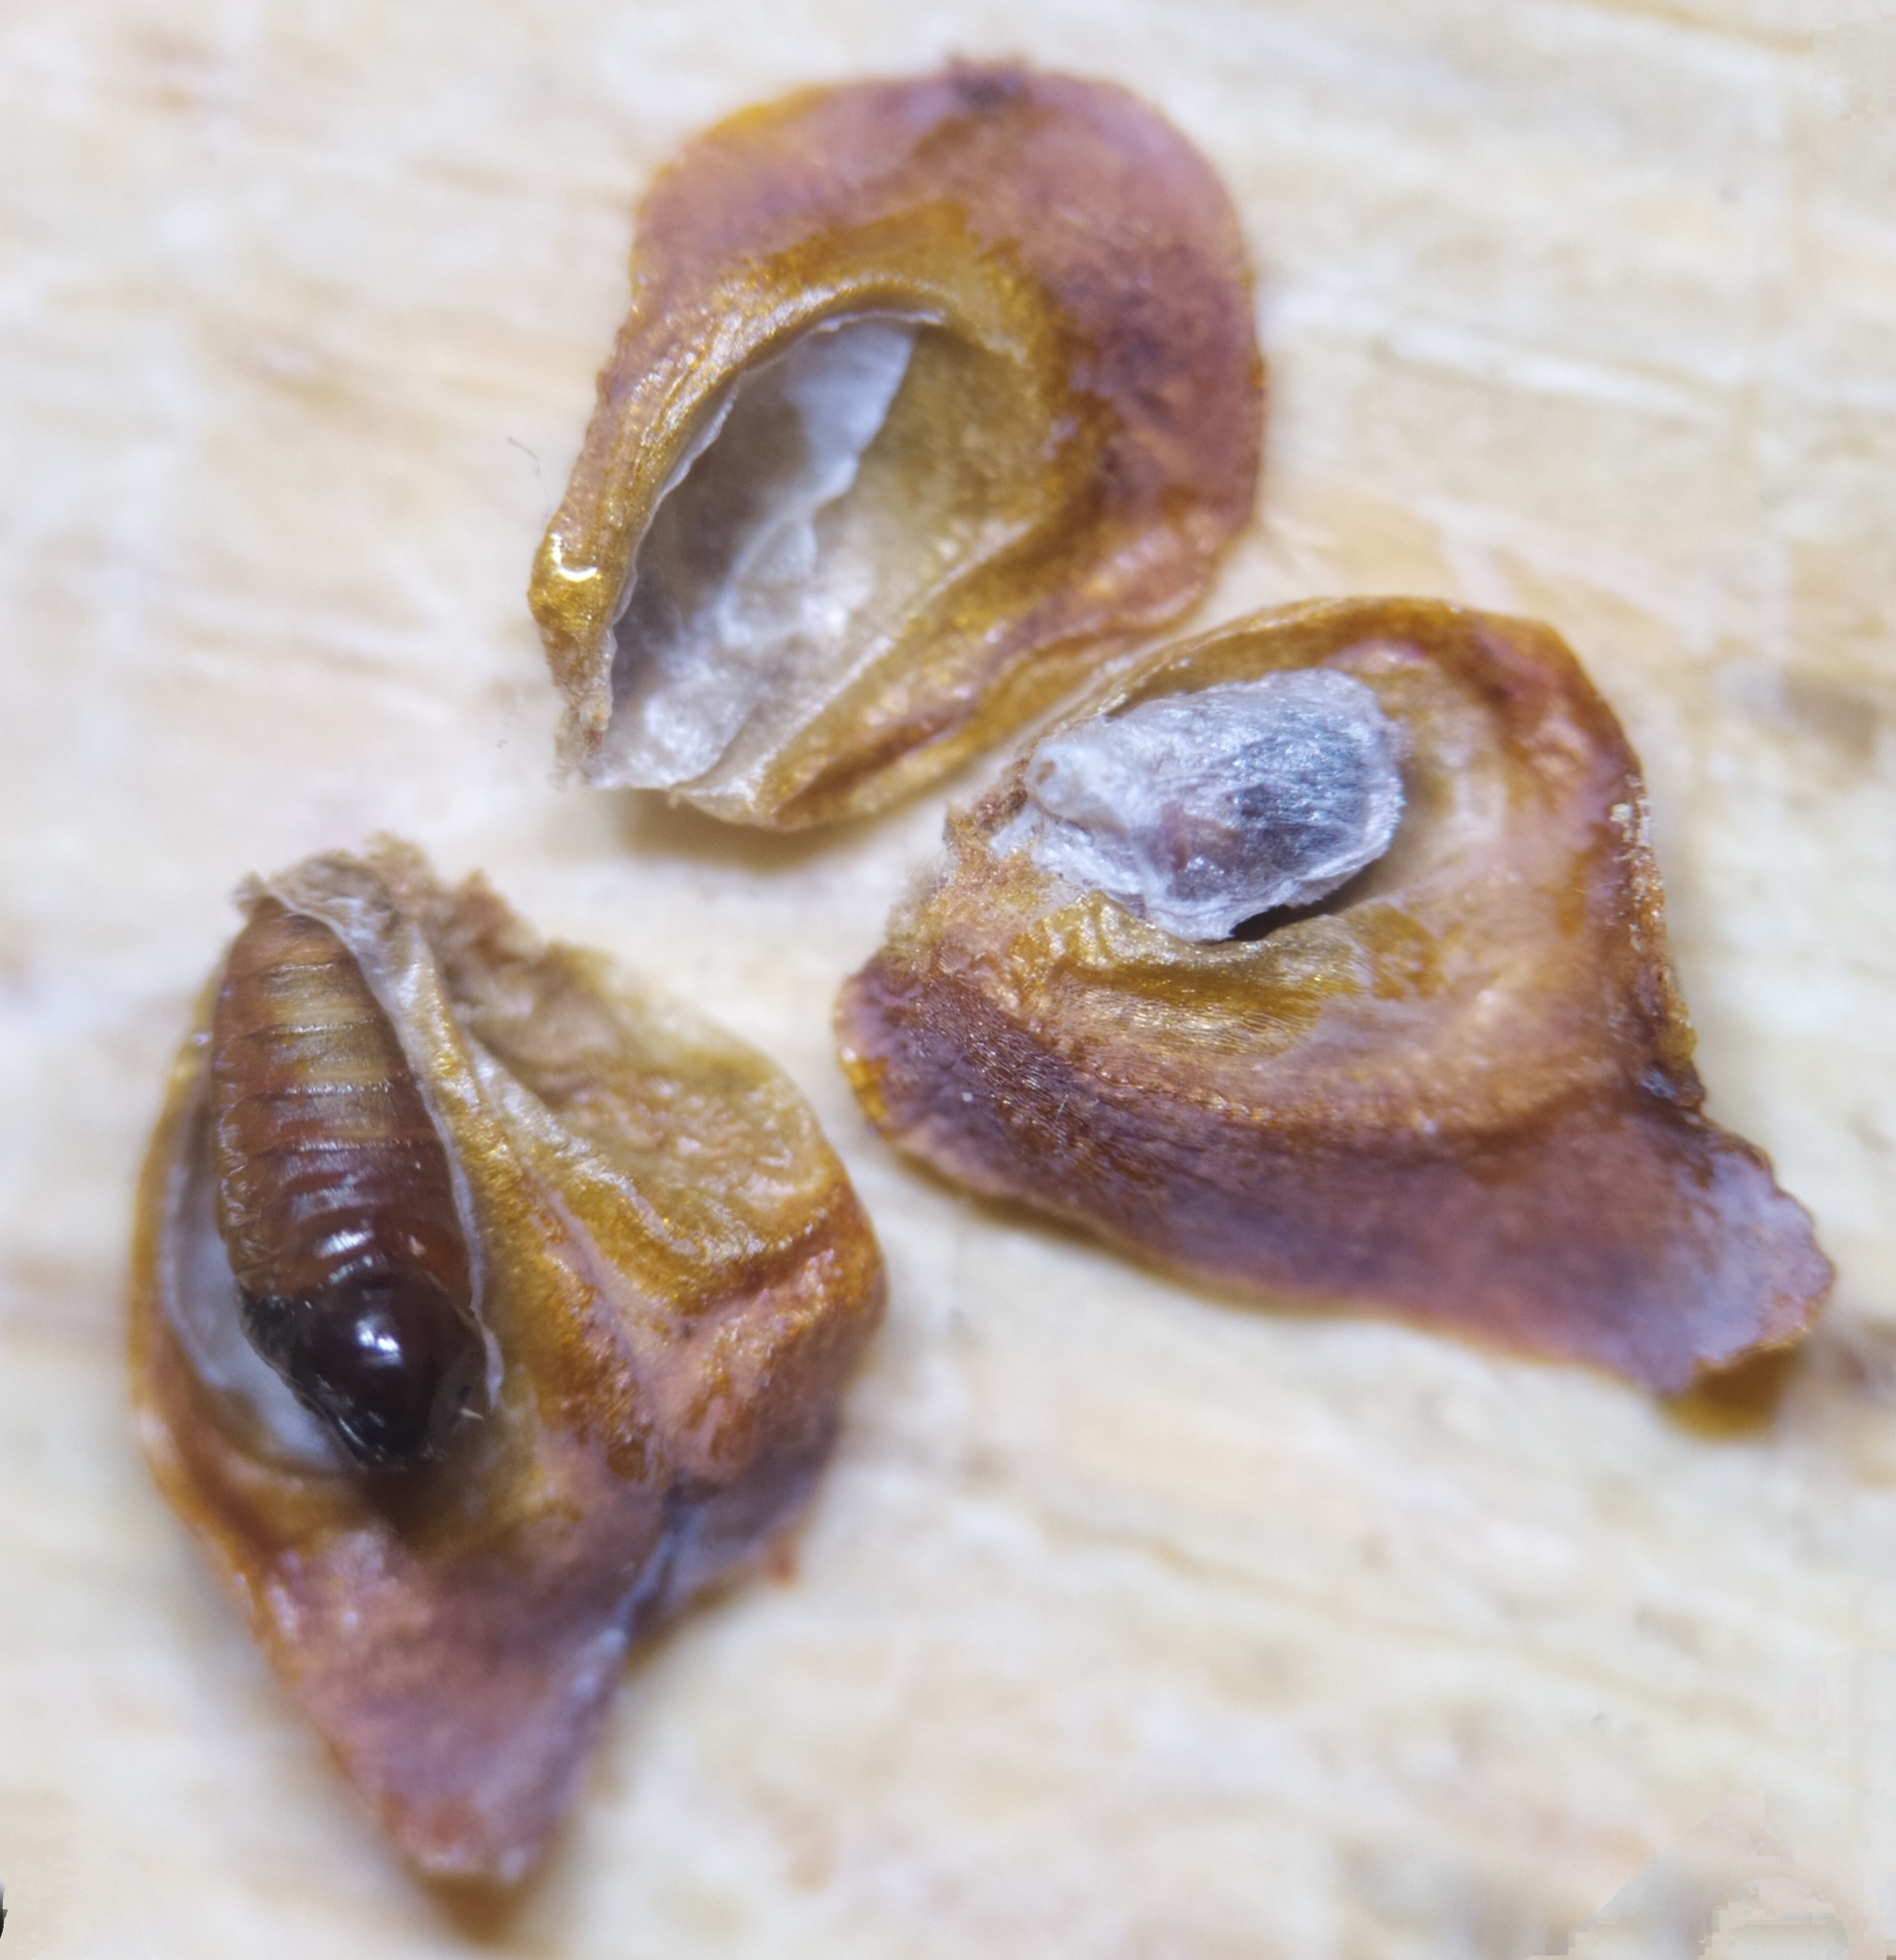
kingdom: Animalia
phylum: Arthropoda
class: Insecta
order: Diptera
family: Cecidomyiidae
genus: Cupressatia
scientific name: Cupressatia siskiyou
